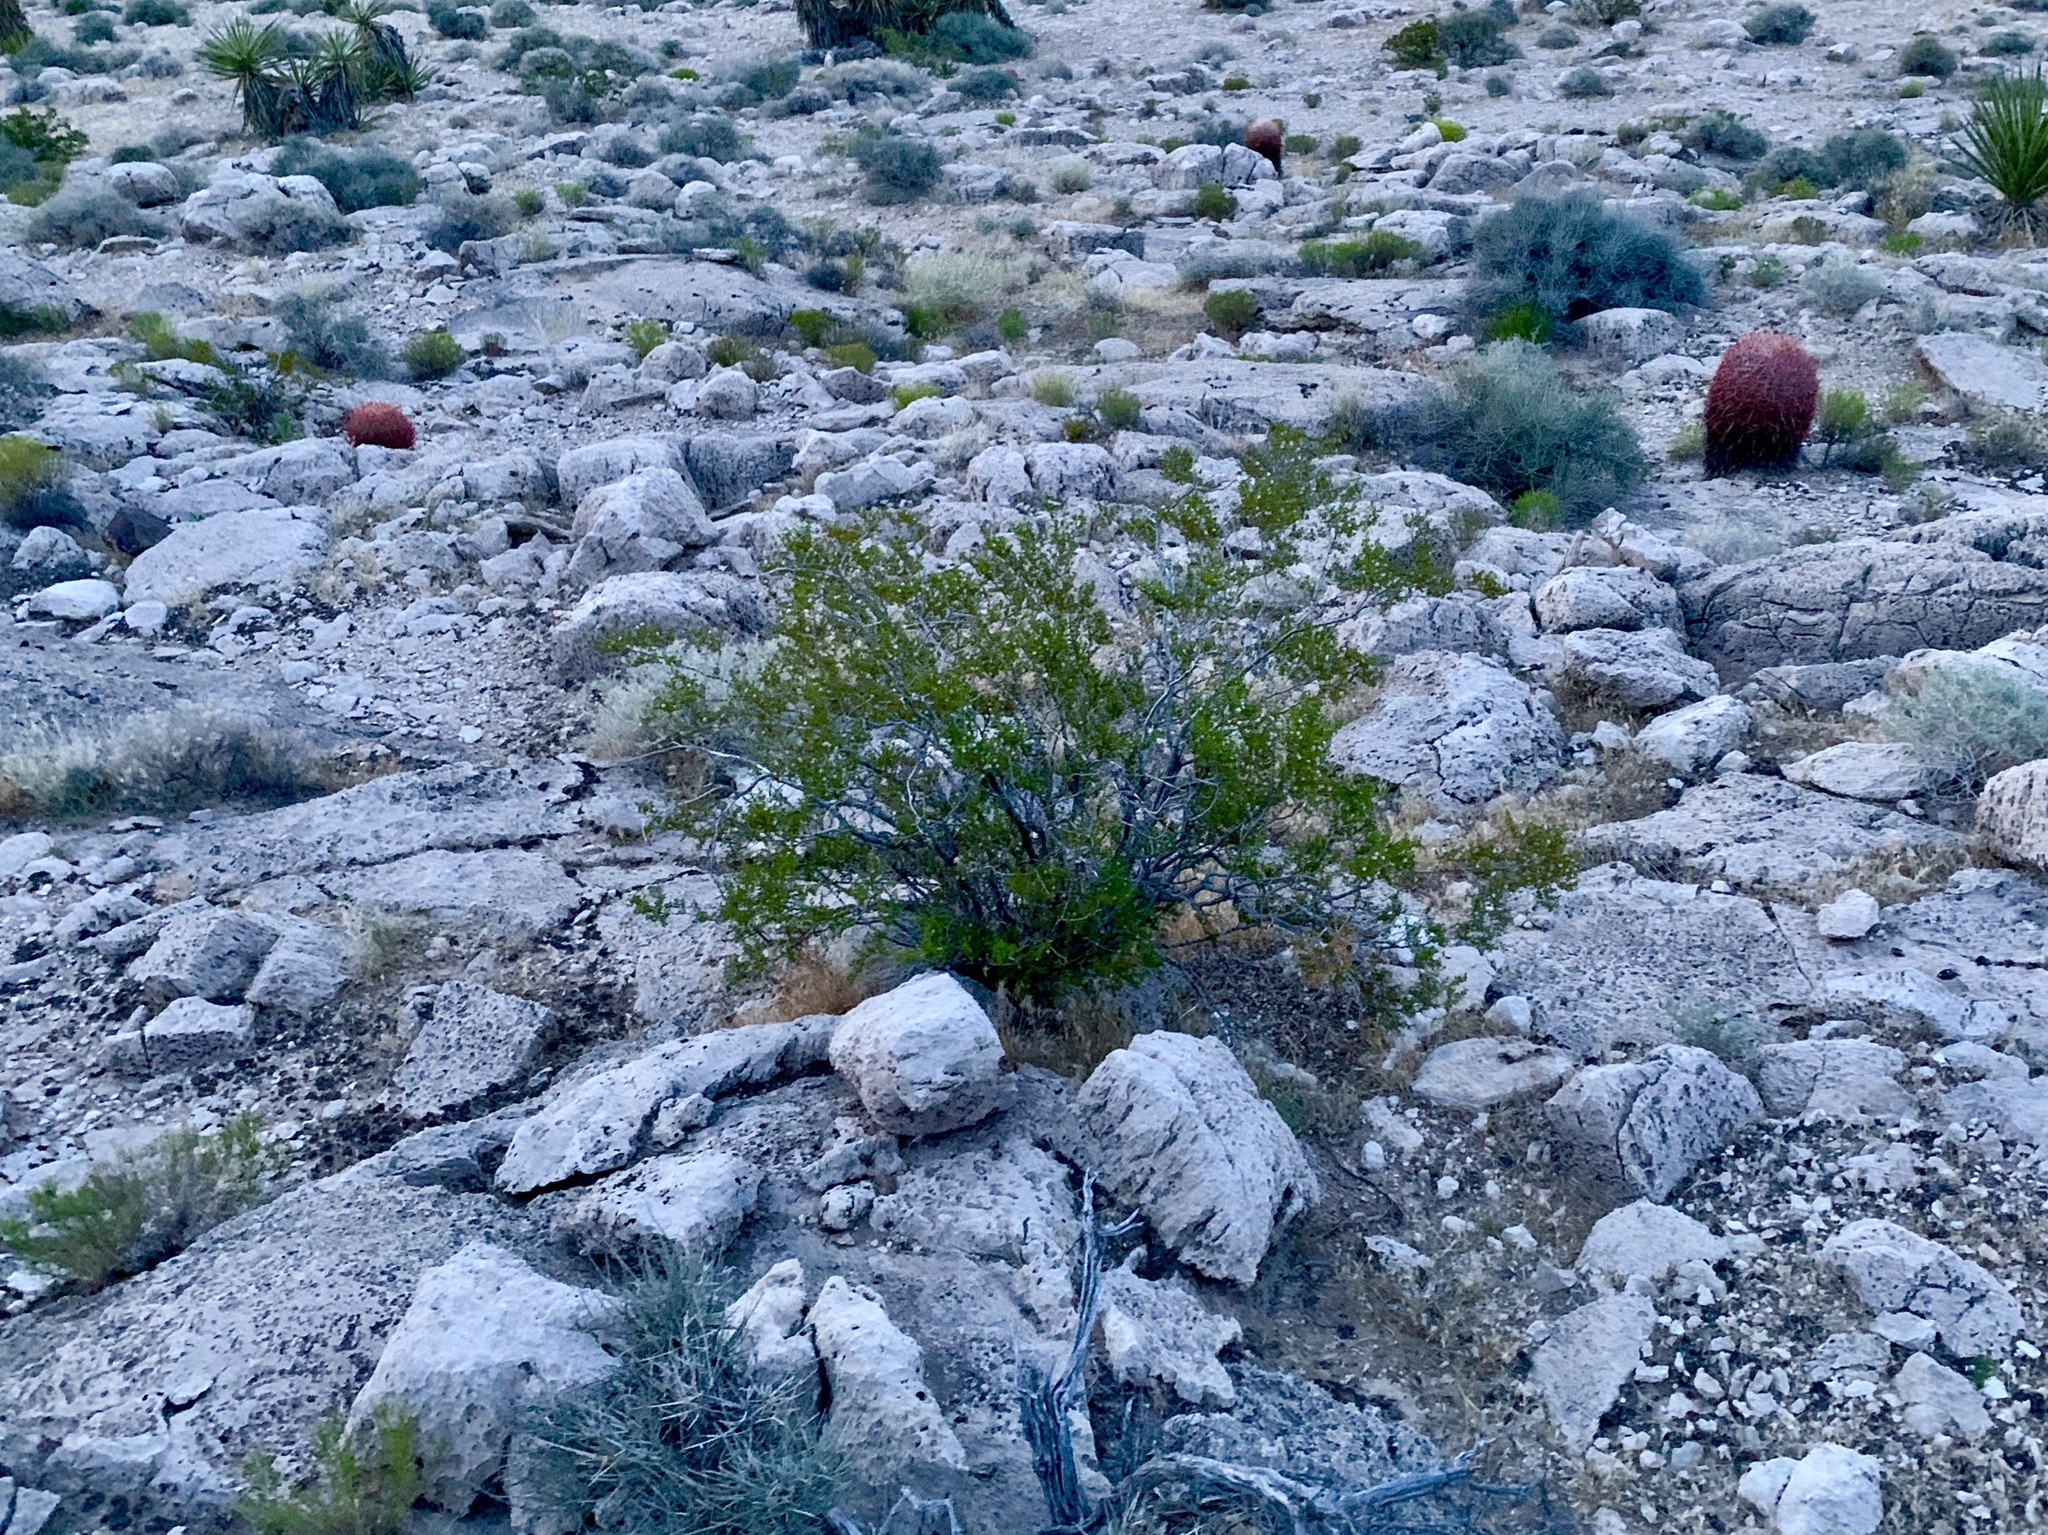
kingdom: Plantae
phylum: Tracheophyta
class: Magnoliopsida
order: Zygophyllales
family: Zygophyllaceae
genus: Larrea
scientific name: Larrea tridentata
